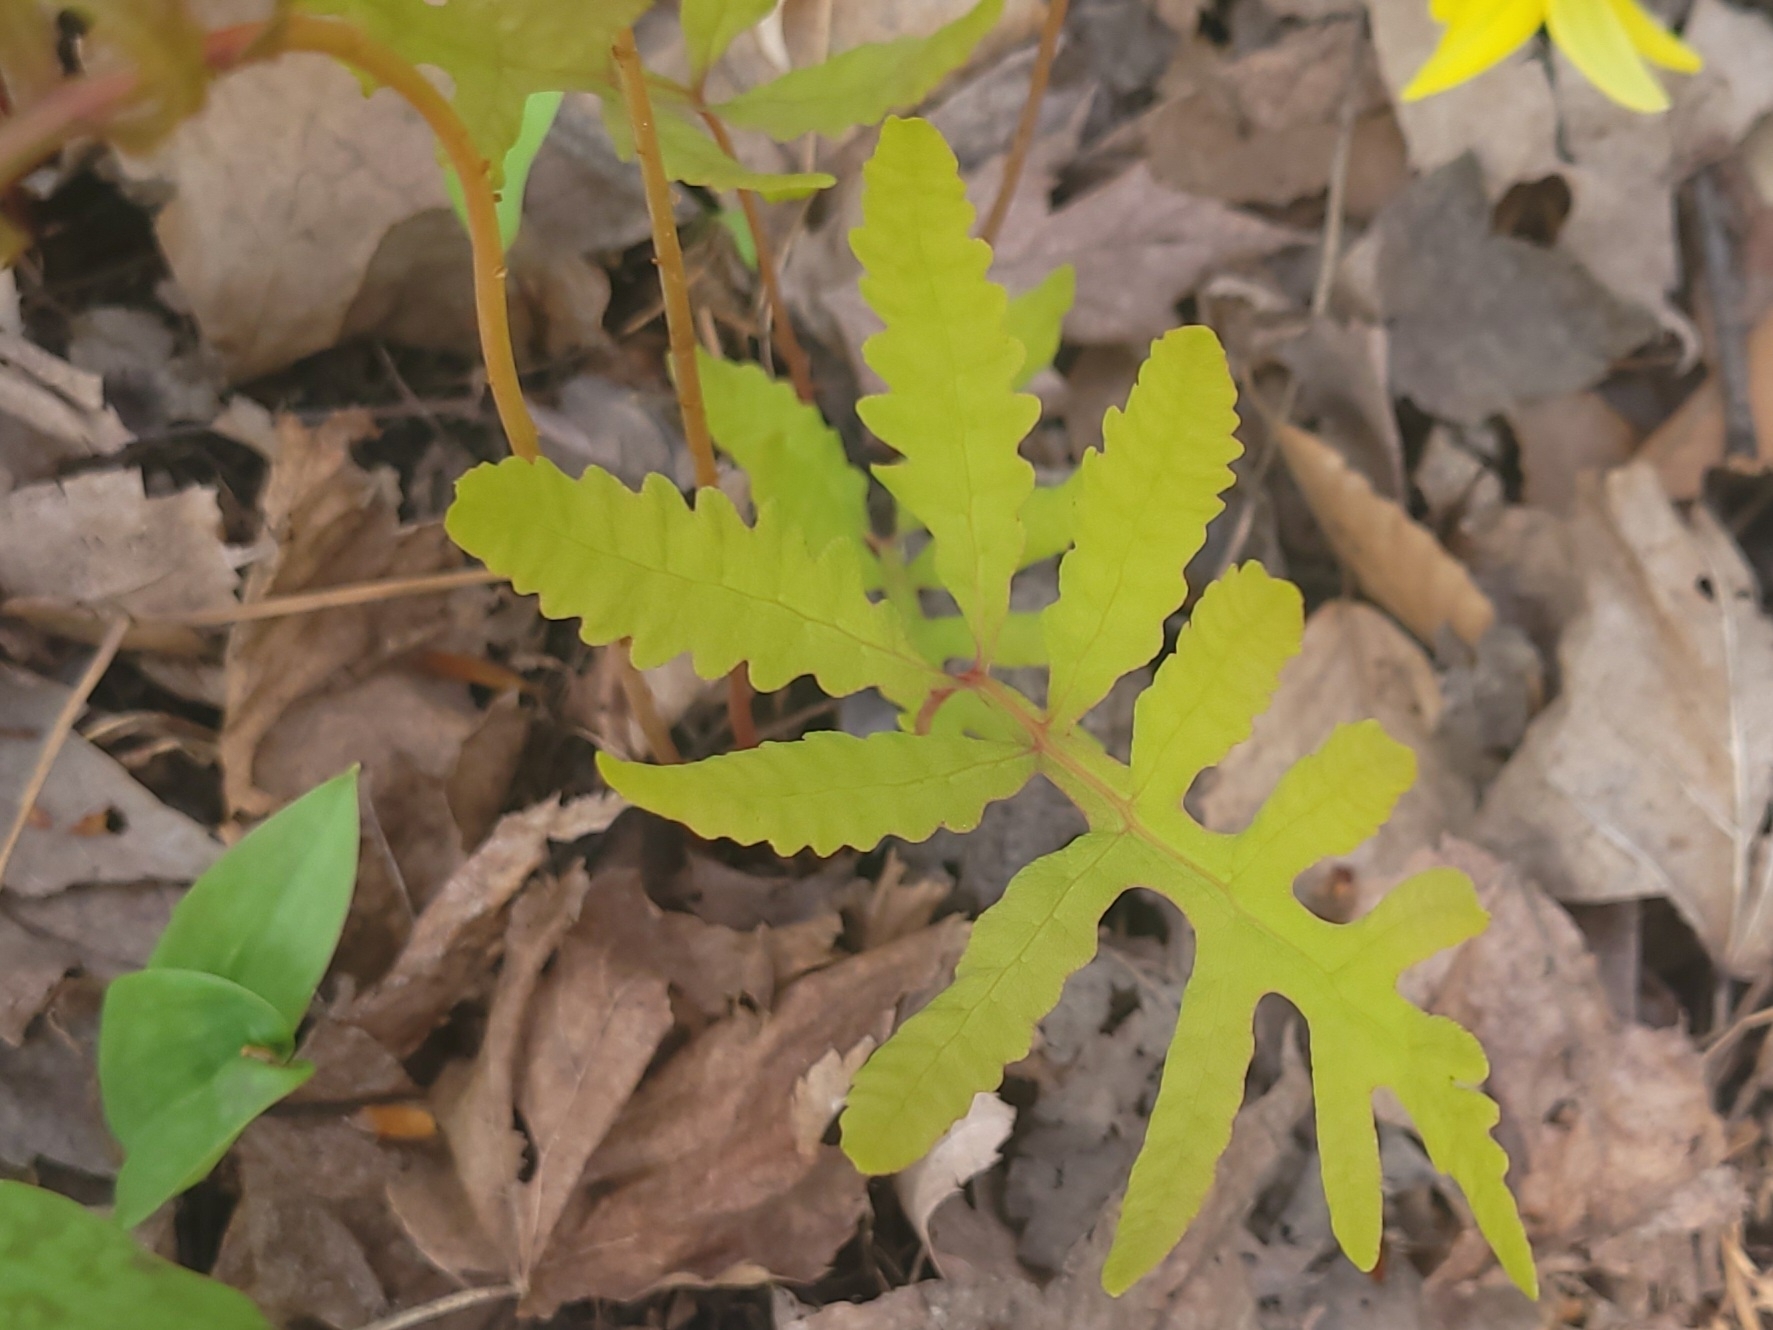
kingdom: Plantae
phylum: Tracheophyta
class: Polypodiopsida
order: Polypodiales
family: Onocleaceae
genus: Onoclea
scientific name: Onoclea sensibilis
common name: Sensitive fern
